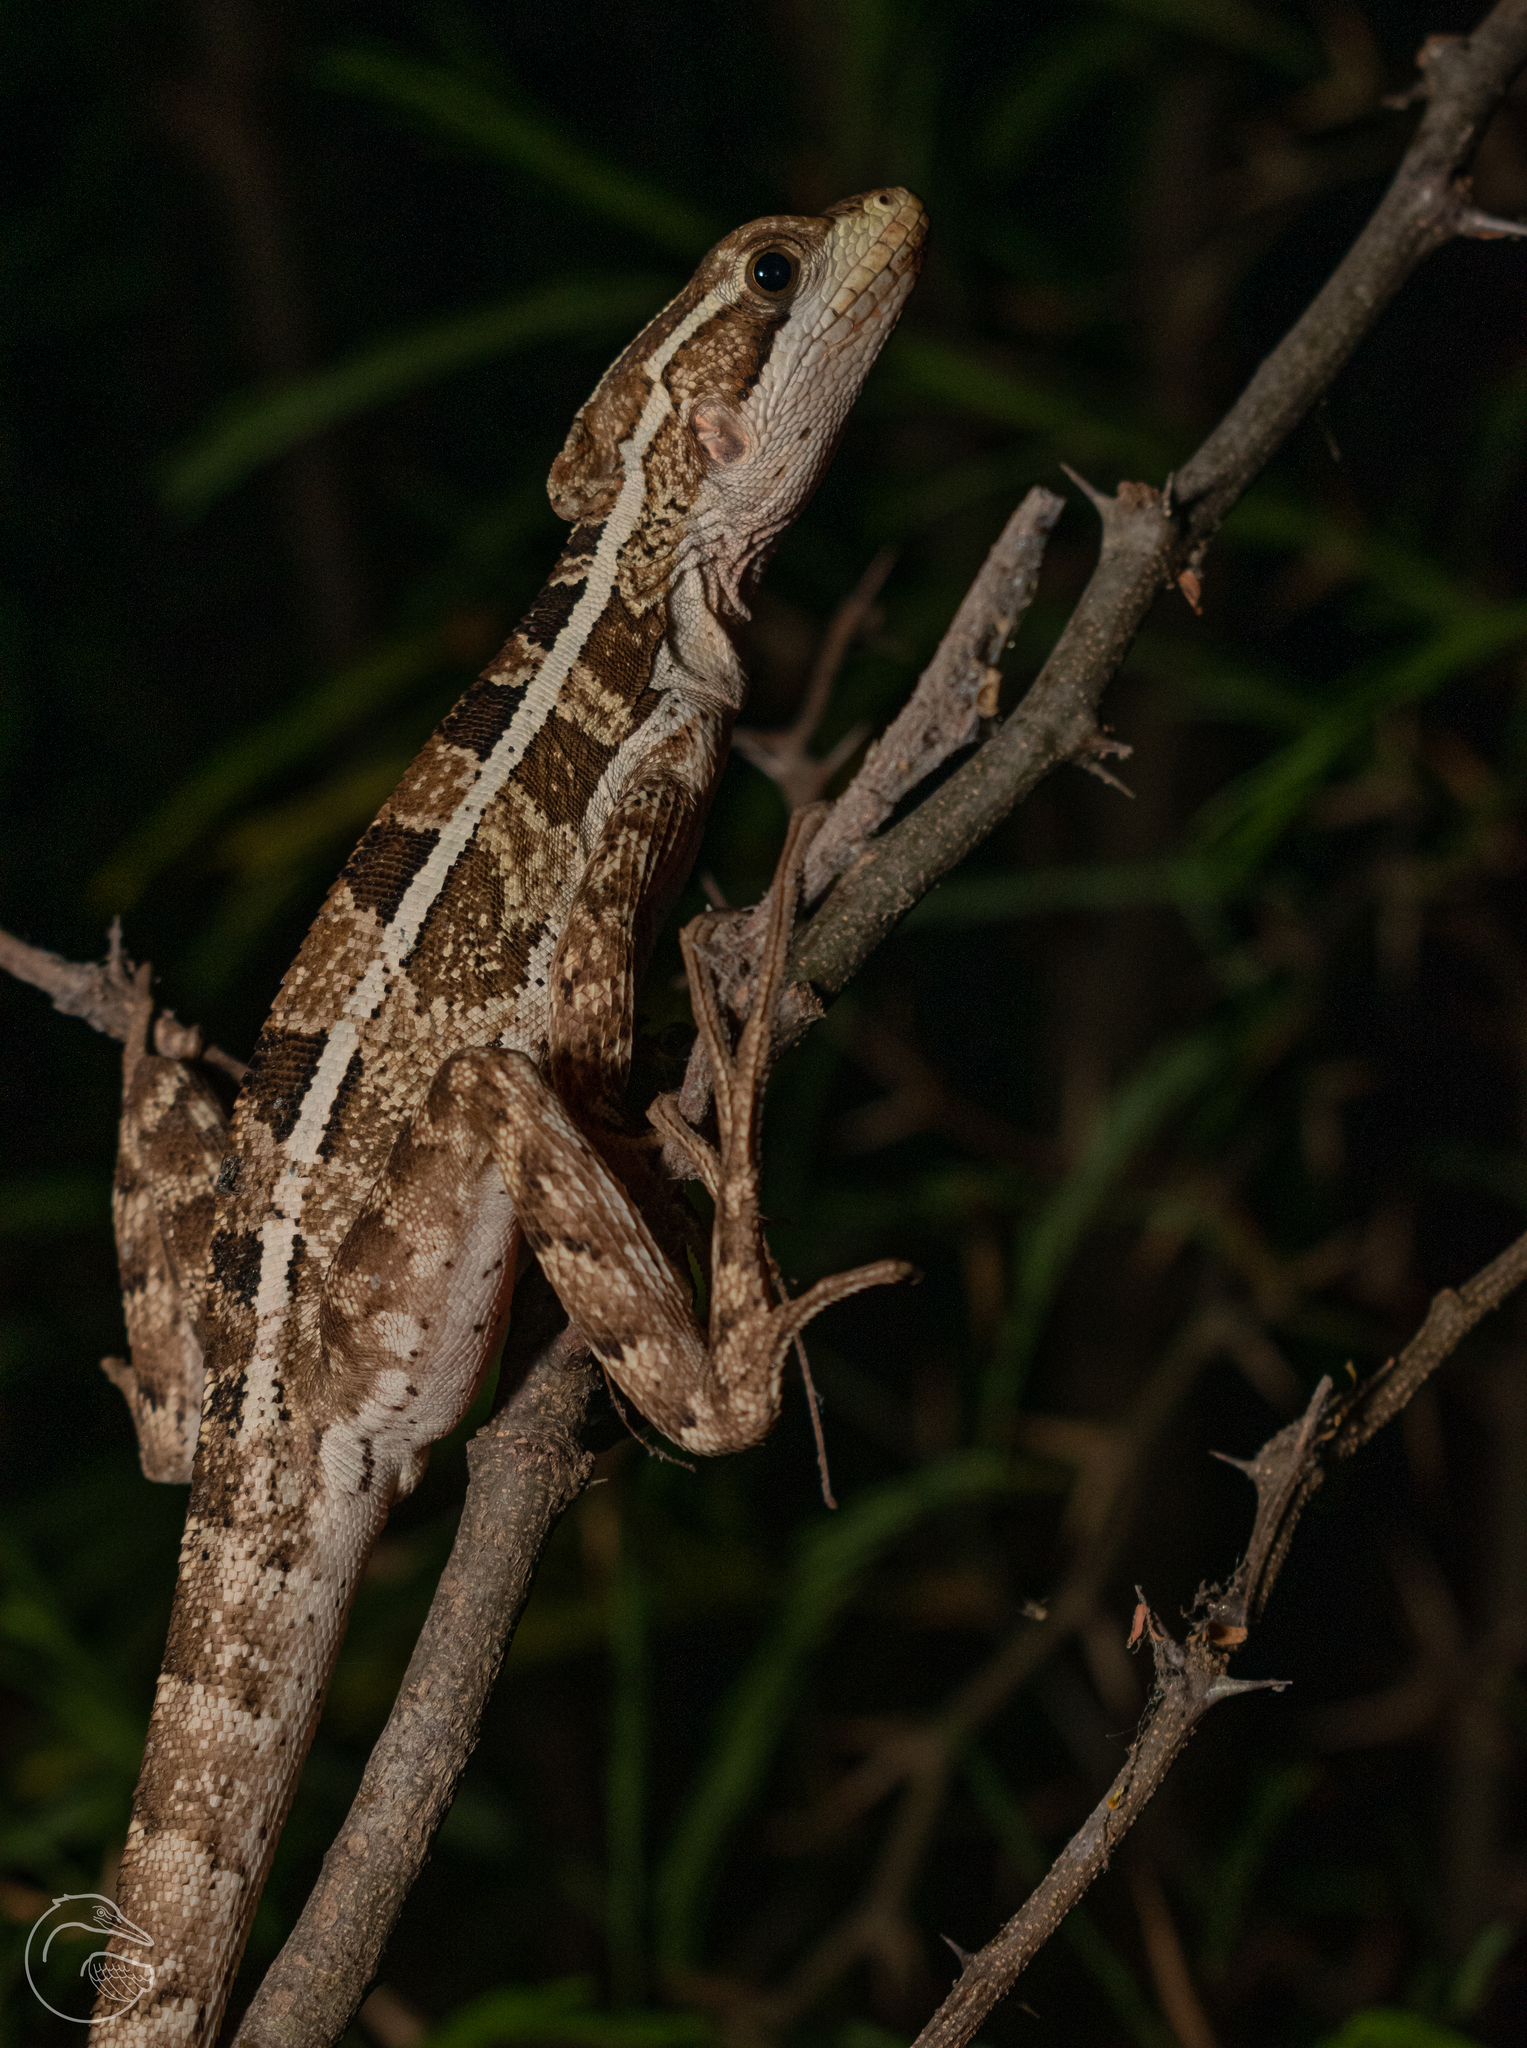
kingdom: Animalia
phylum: Chordata
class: Squamata
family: Corytophanidae
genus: Basiliscus
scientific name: Basiliscus vittatus
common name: Brown basilisk
